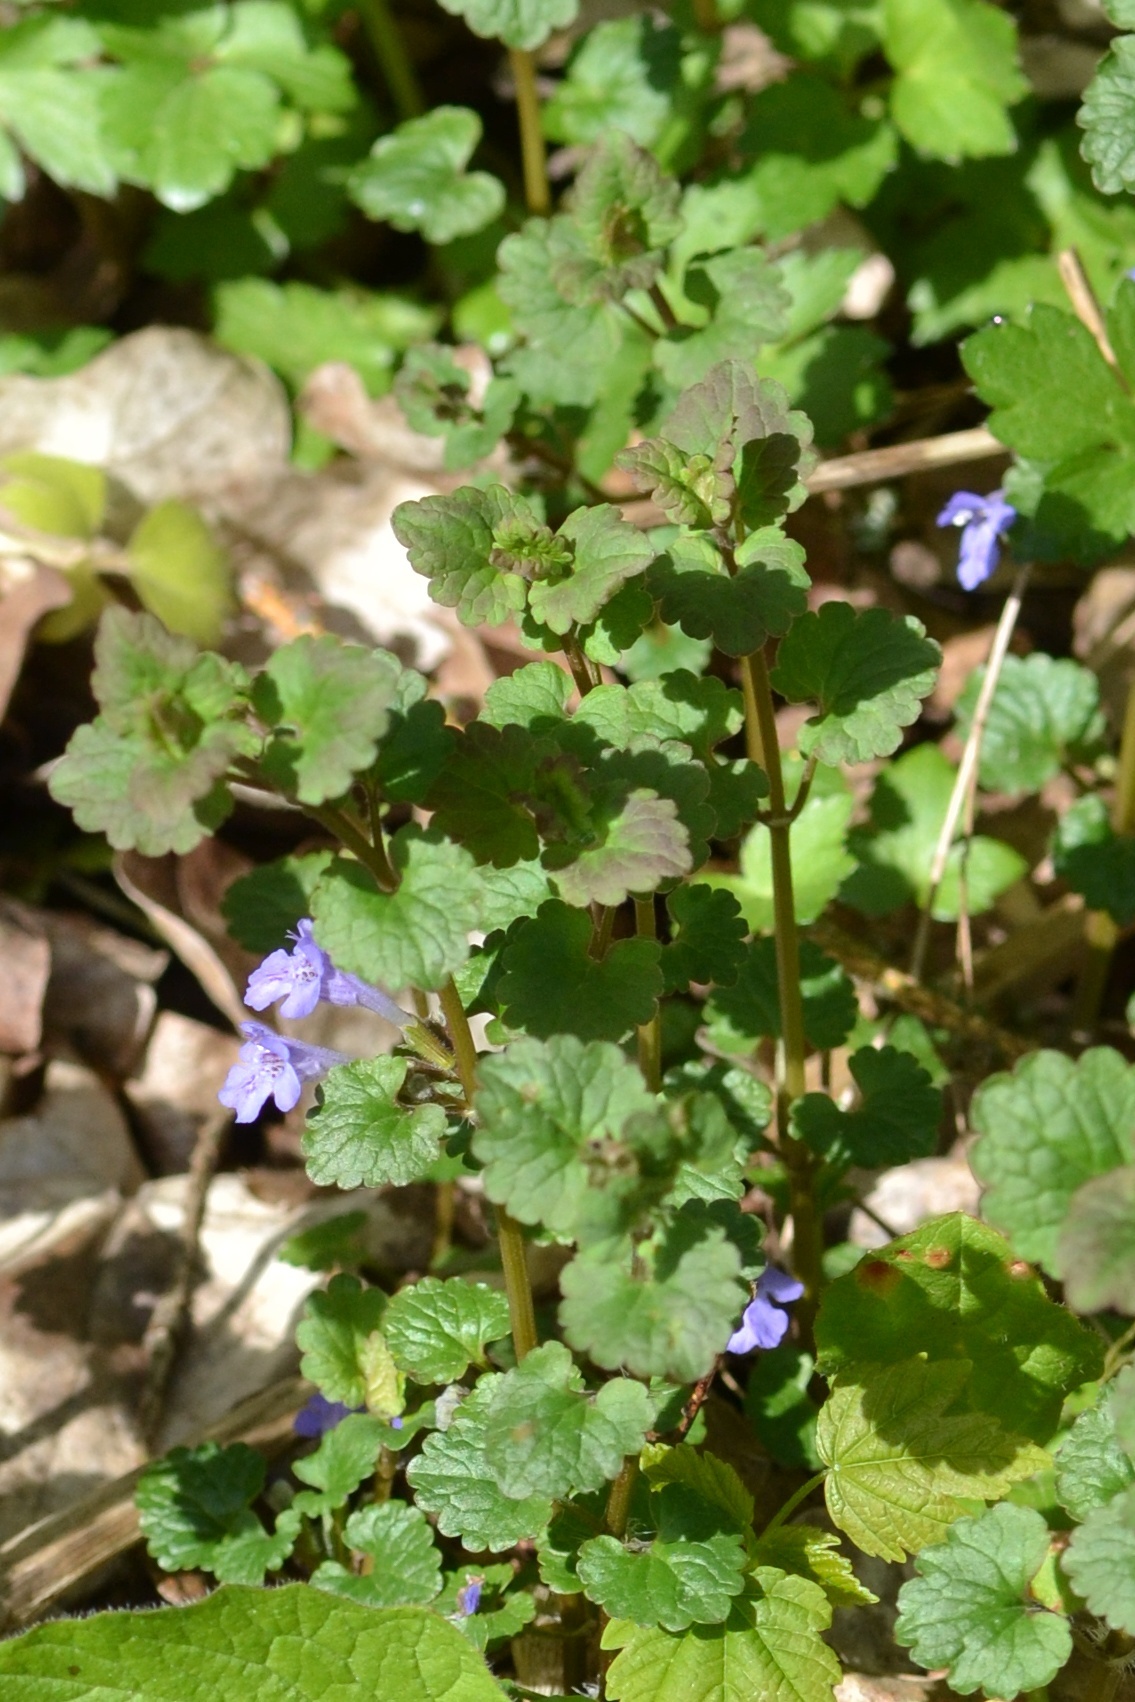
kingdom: Plantae
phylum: Tracheophyta
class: Magnoliopsida
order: Lamiales
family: Lamiaceae
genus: Glechoma
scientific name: Glechoma hederacea
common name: Ground ivy
